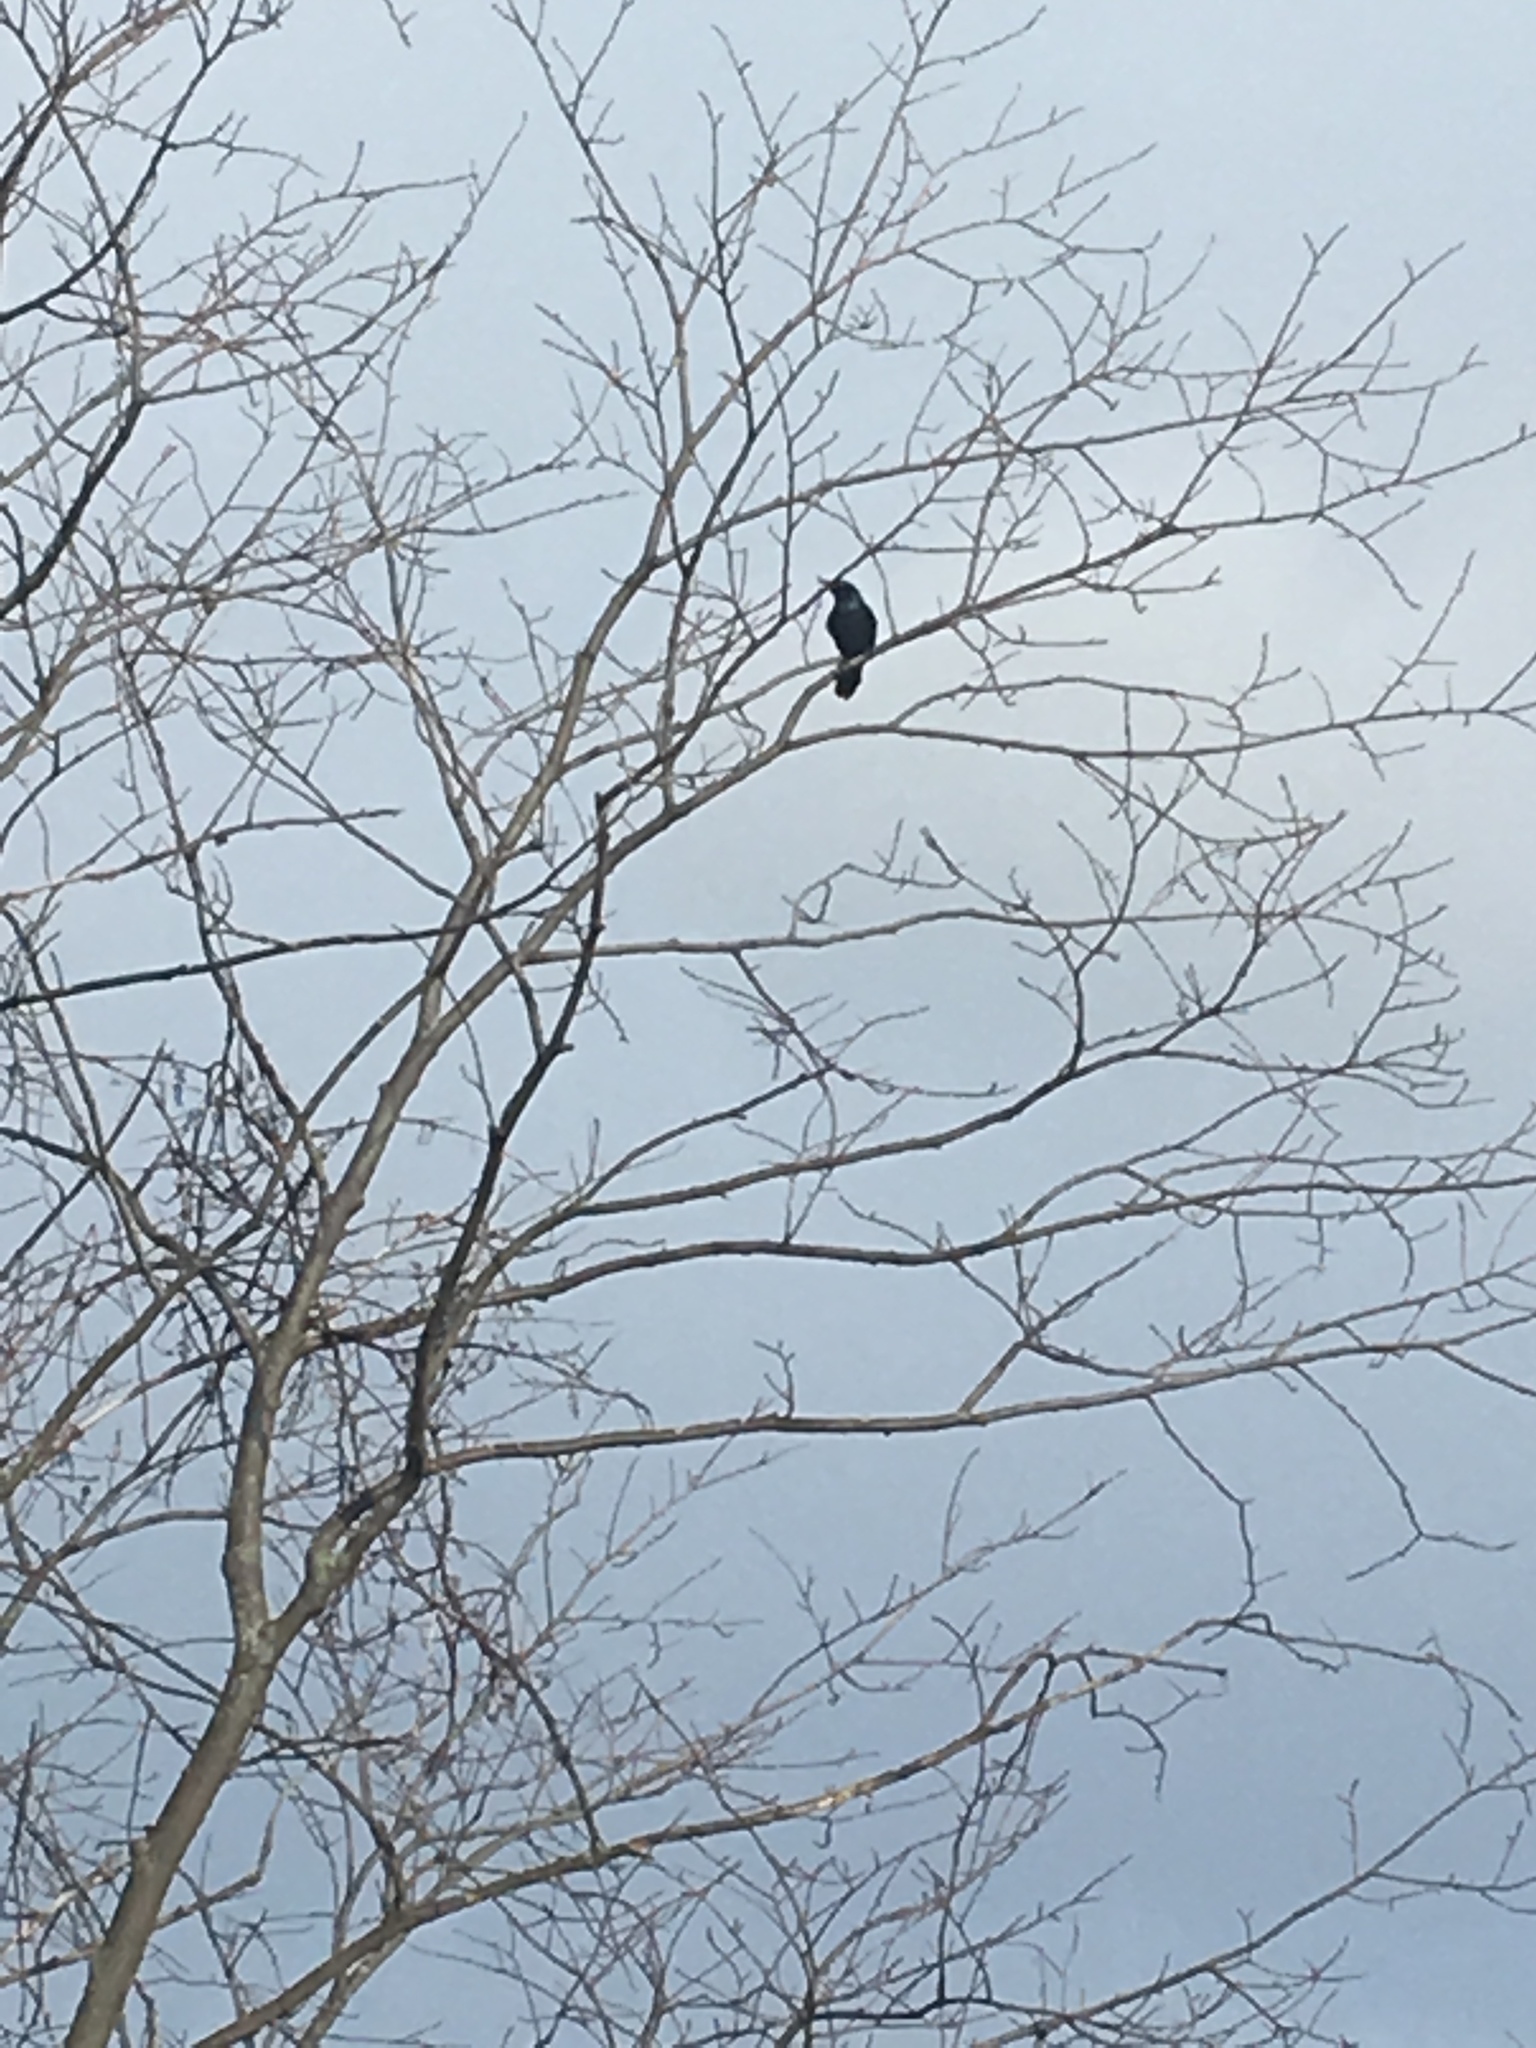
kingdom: Animalia
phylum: Chordata
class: Aves
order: Passeriformes
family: Icteridae
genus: Quiscalus
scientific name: Quiscalus quiscula
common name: Common grackle
